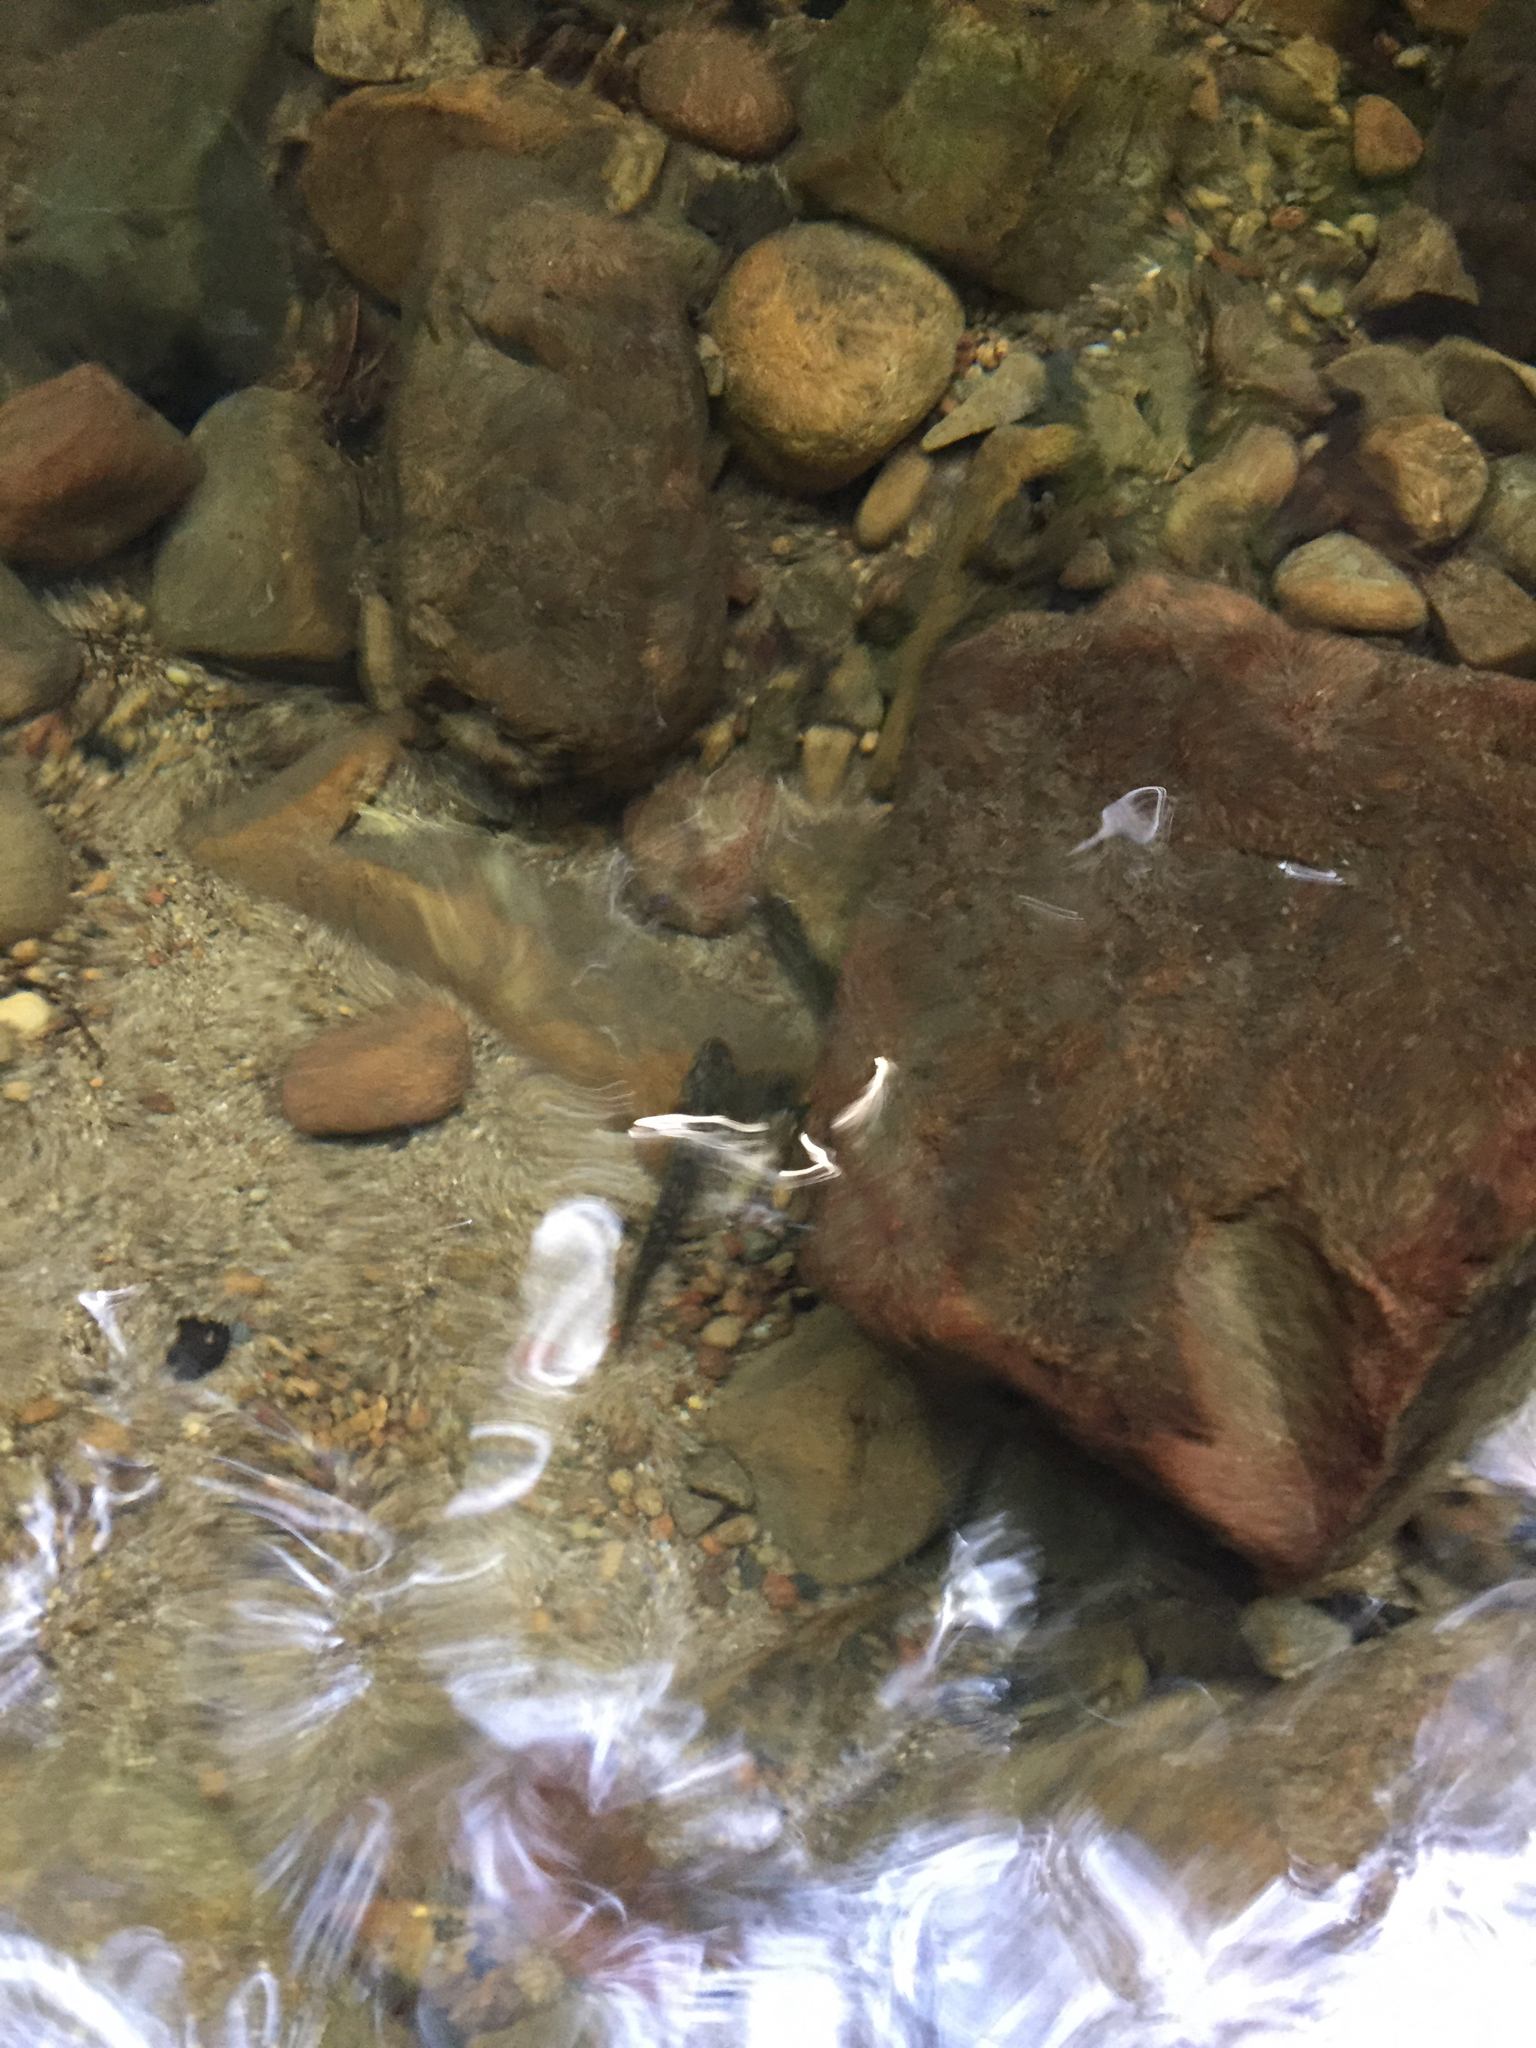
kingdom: Animalia
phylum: Chordata
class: Amphibia
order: Caudata
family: Ambystomatidae
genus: Dicamptodon
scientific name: Dicamptodon ensatus
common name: California giant salamander
